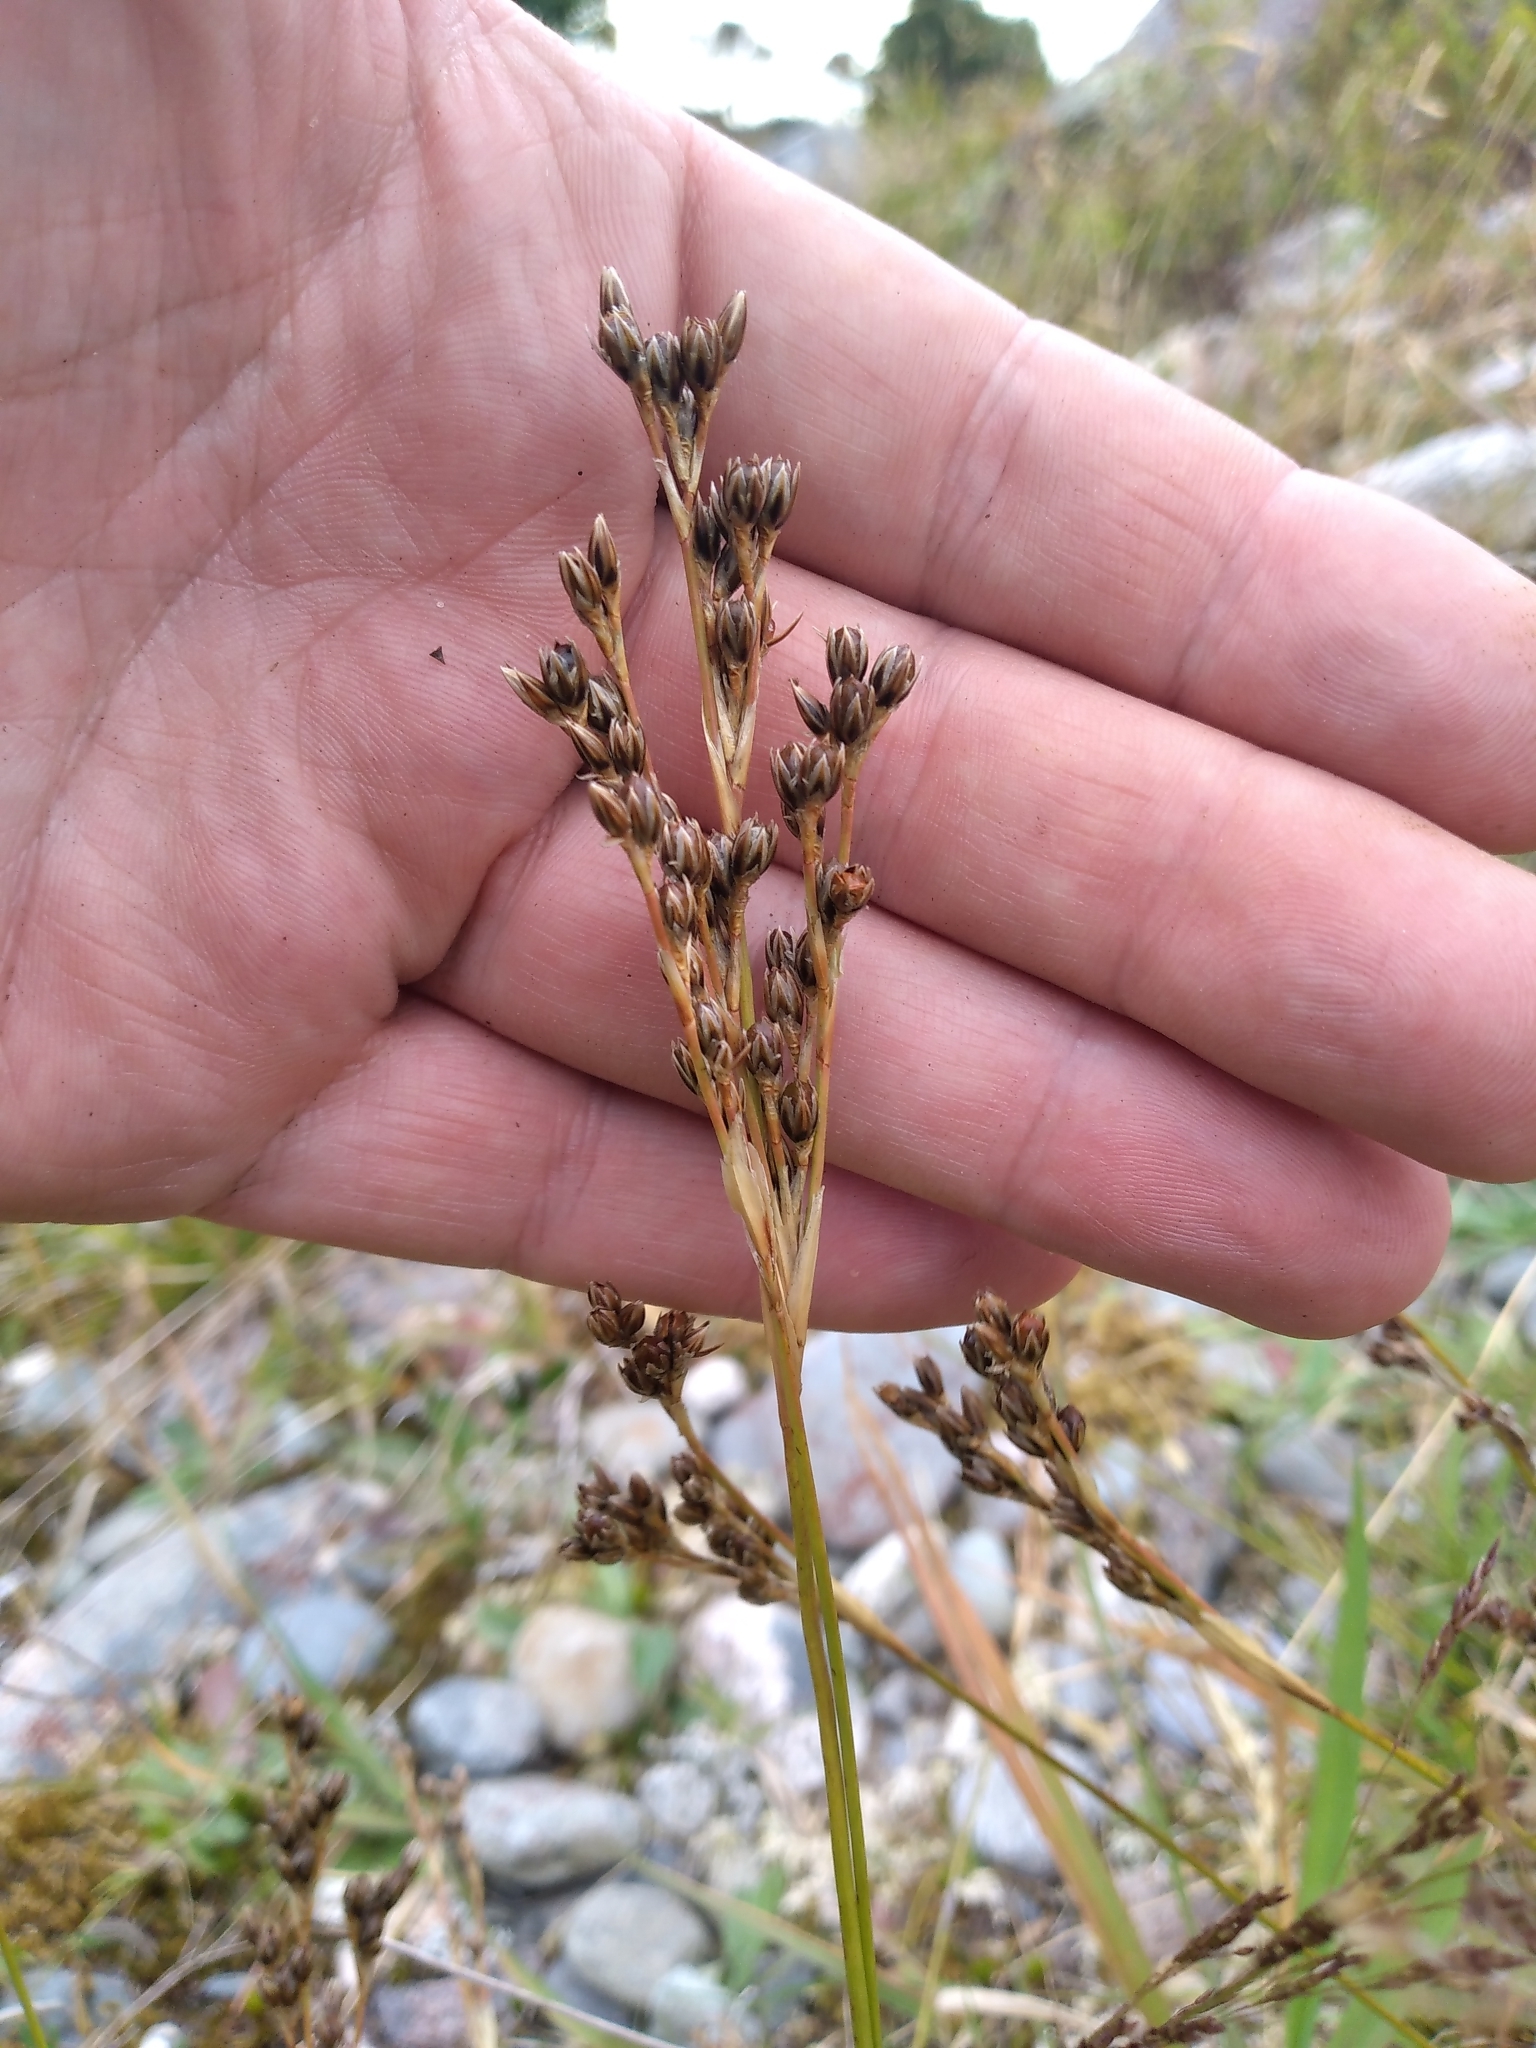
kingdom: Plantae
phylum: Tracheophyta
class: Liliopsida
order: Poales
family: Juncaceae
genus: Juncus
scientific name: Juncus squarrosus
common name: Heath rush
